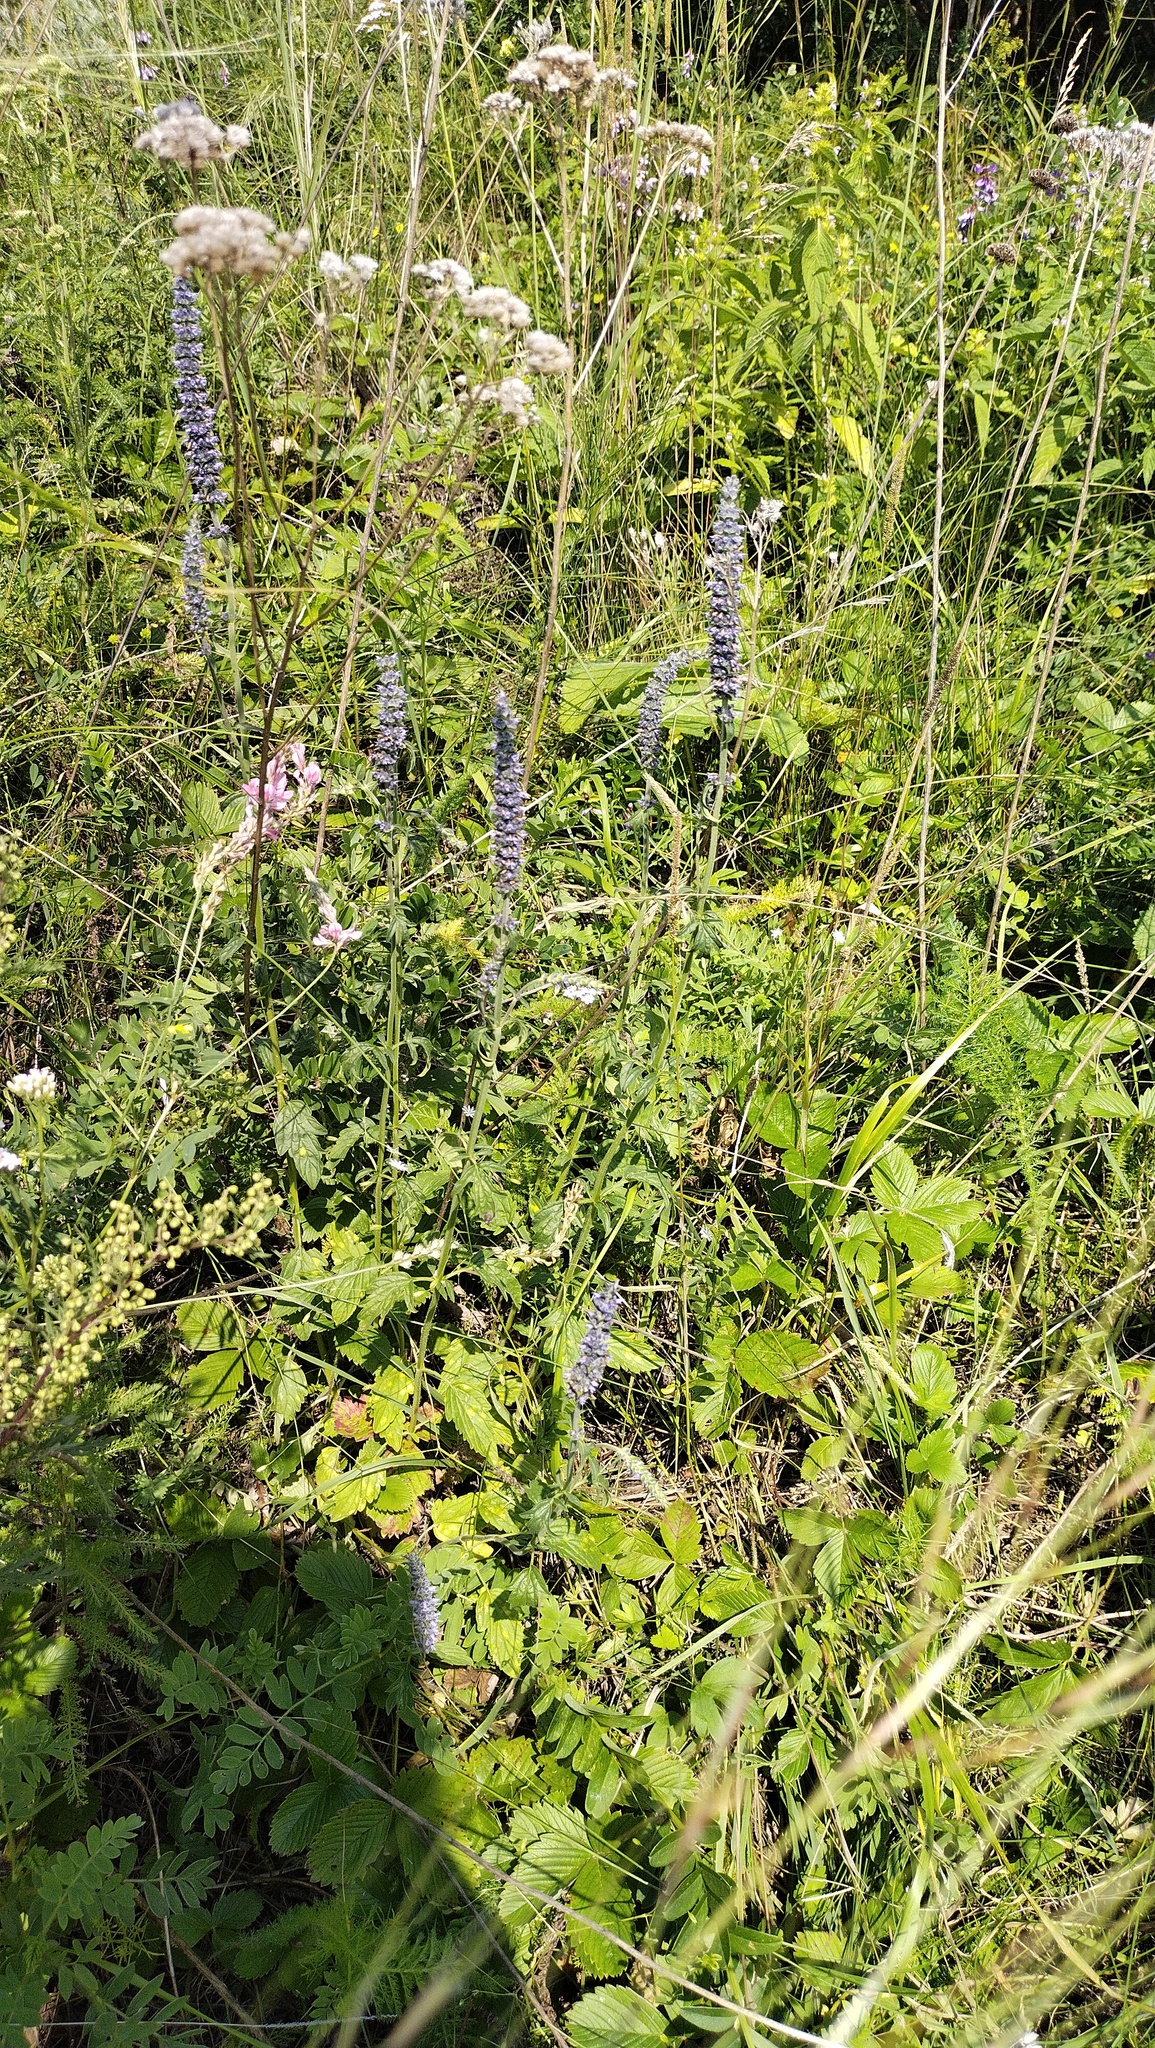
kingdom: Plantae
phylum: Tracheophyta
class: Magnoliopsida
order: Lamiales
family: Lamiaceae
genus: Nepeta
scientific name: Nepeta multifida
